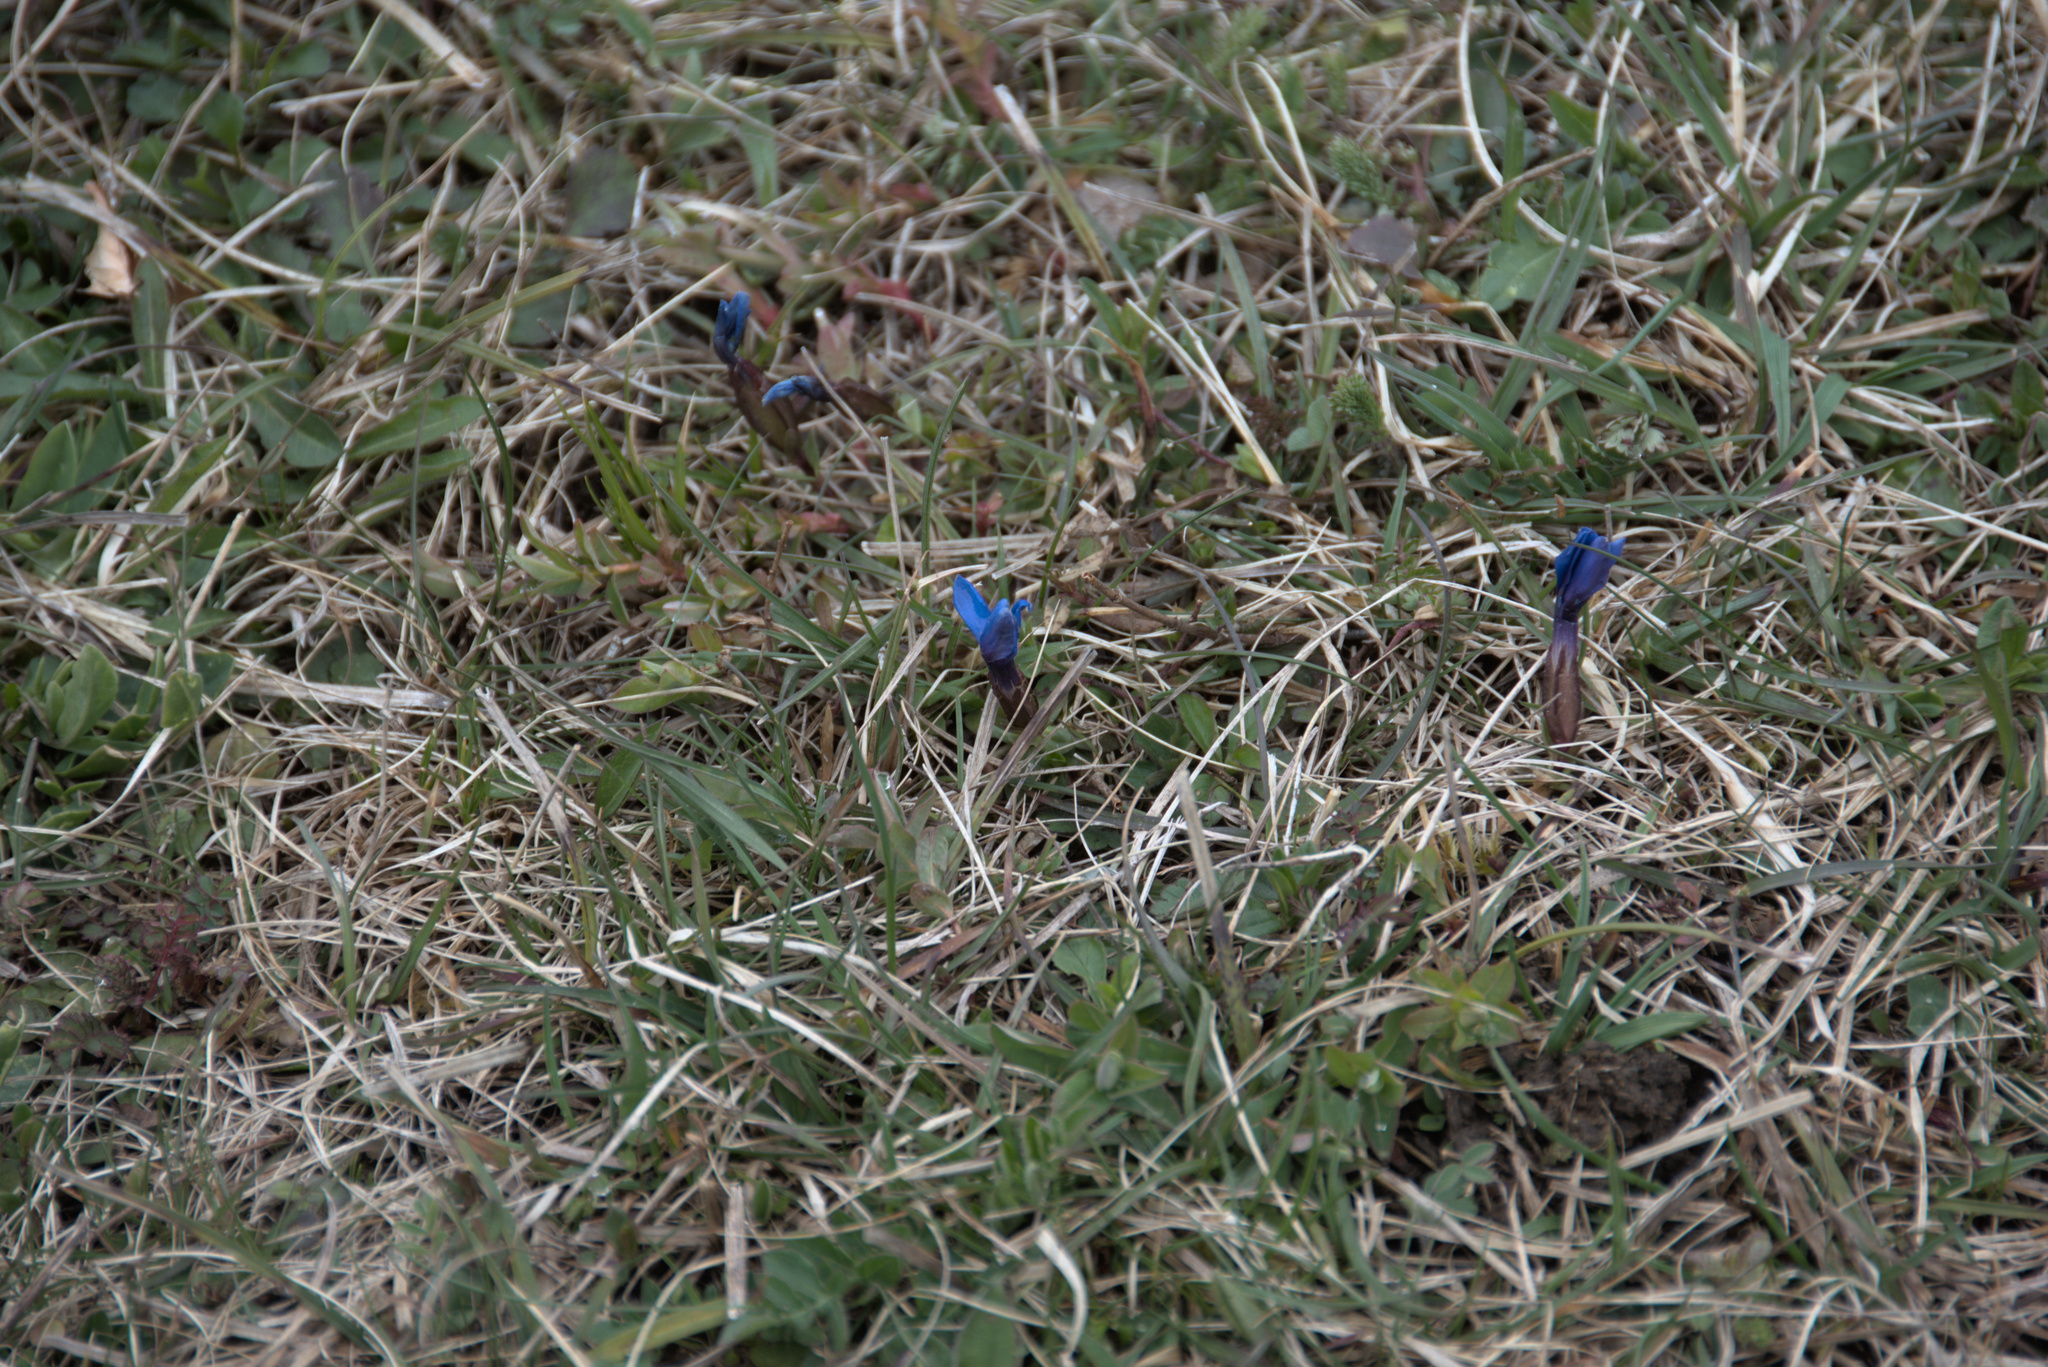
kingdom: Plantae
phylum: Tracheophyta
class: Magnoliopsida
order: Gentianales
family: Gentianaceae
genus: Gentiana
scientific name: Gentiana verna
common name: Spring gentian
